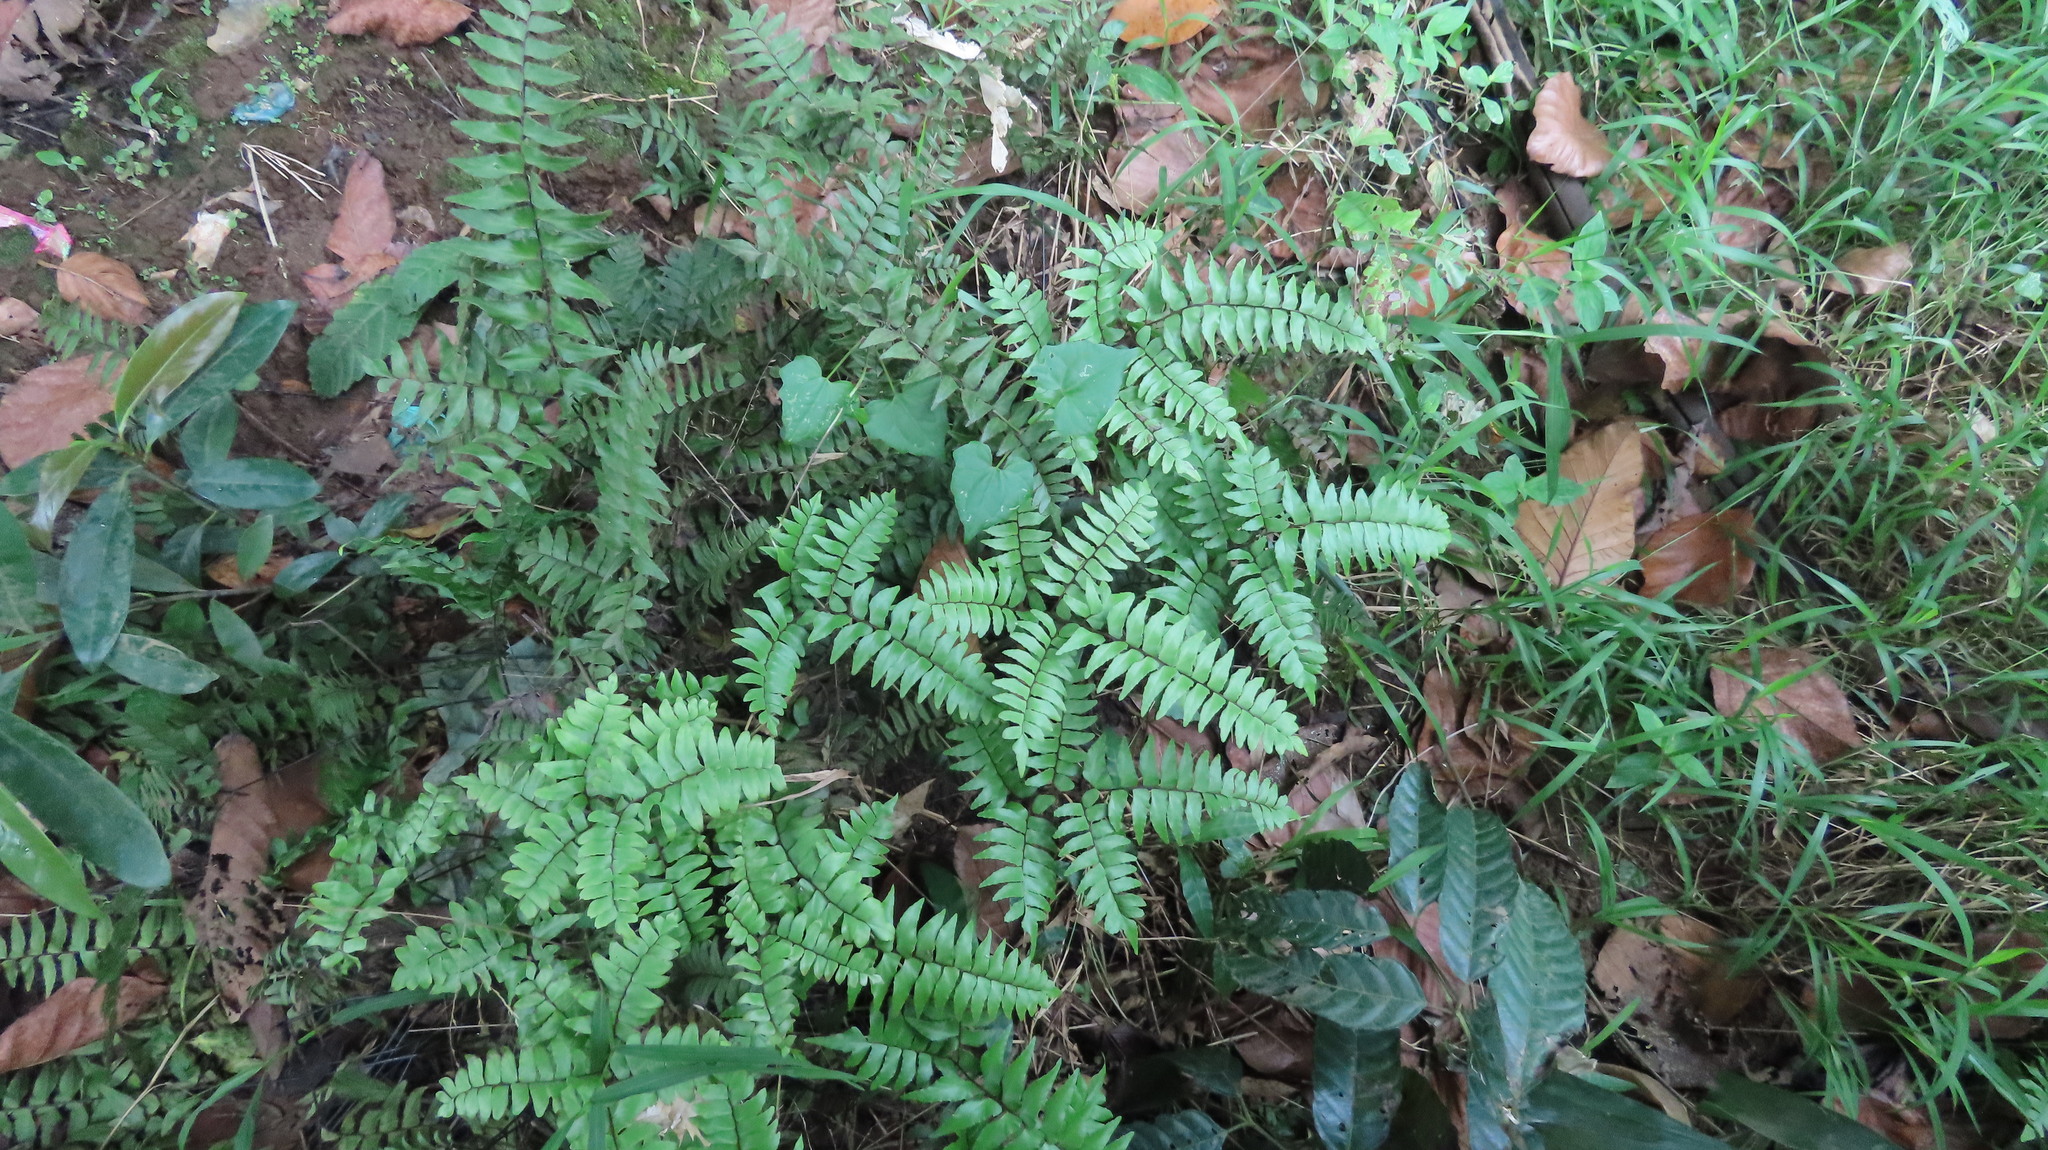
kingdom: Plantae
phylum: Tracheophyta
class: Polypodiopsida
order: Polypodiales
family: Pteridaceae
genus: Adiantum
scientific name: Adiantum latifolium
